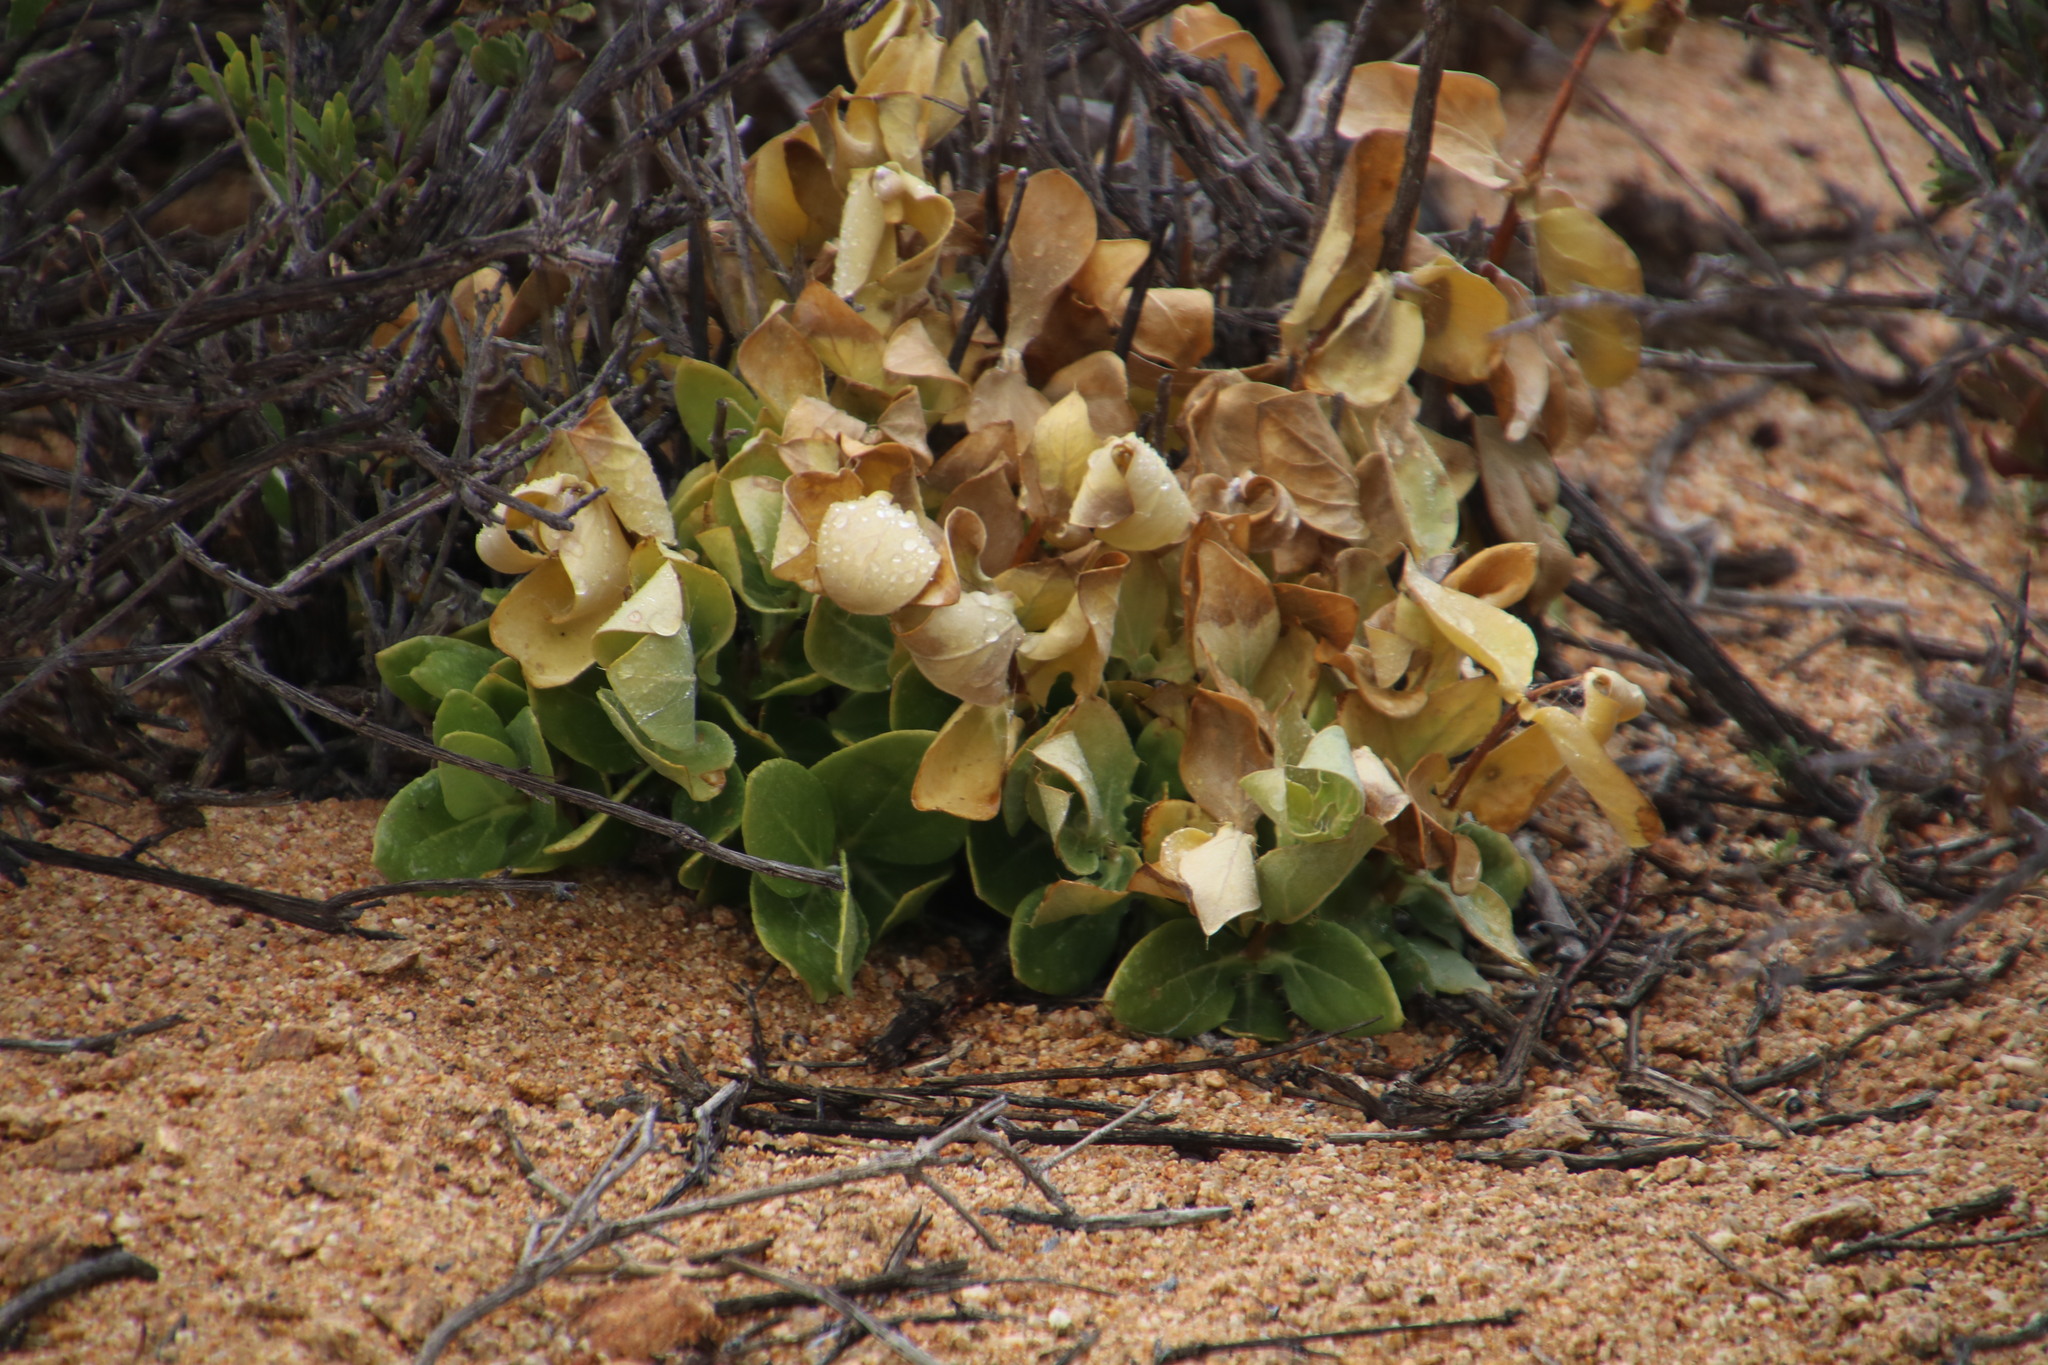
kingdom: Plantae
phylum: Tracheophyta
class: Magnoliopsida
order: Asterales
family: Asteraceae
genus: Didelta
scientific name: Didelta spinosa
